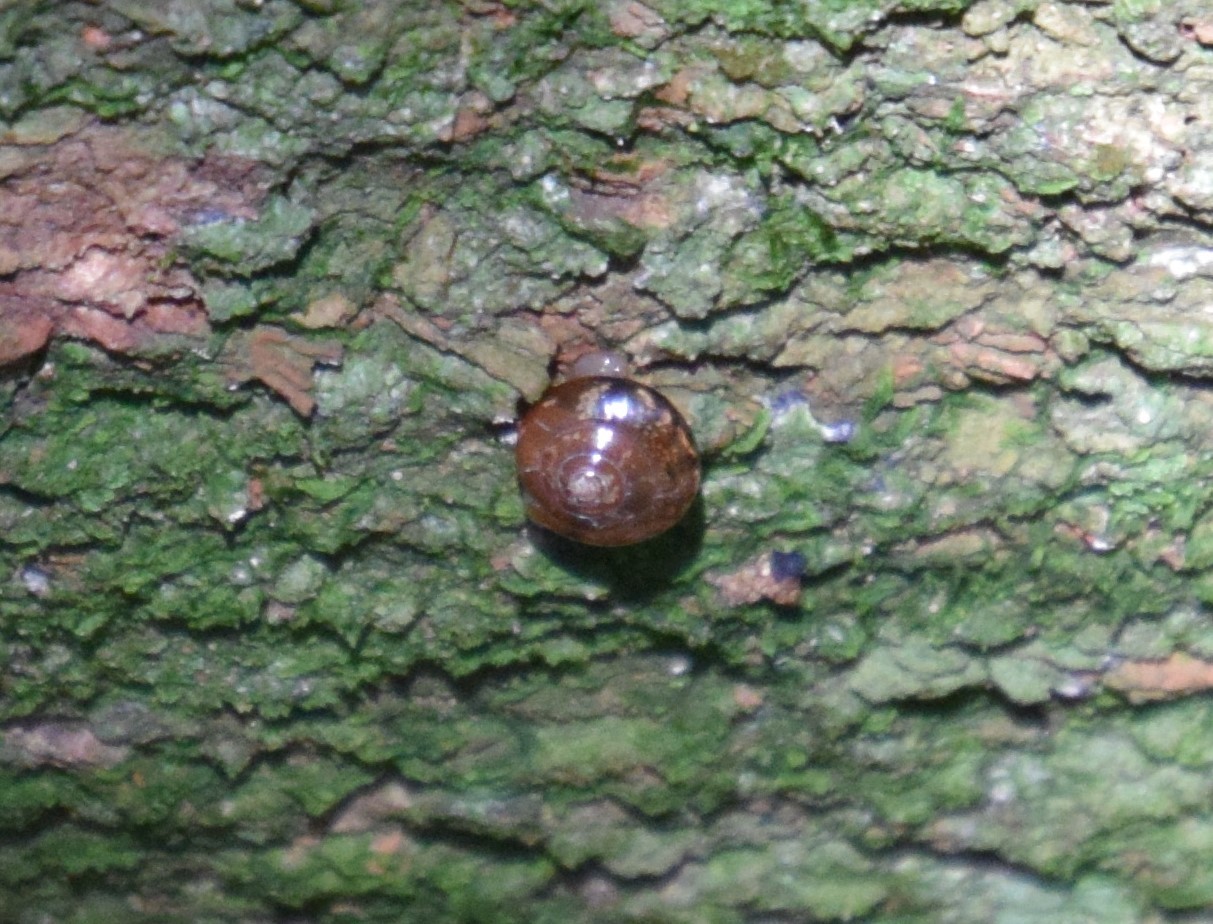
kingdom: Animalia
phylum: Mollusca
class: Gastropoda
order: Stylommatophora
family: Helicarionidae
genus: Nitor
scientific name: Nitor sheai
